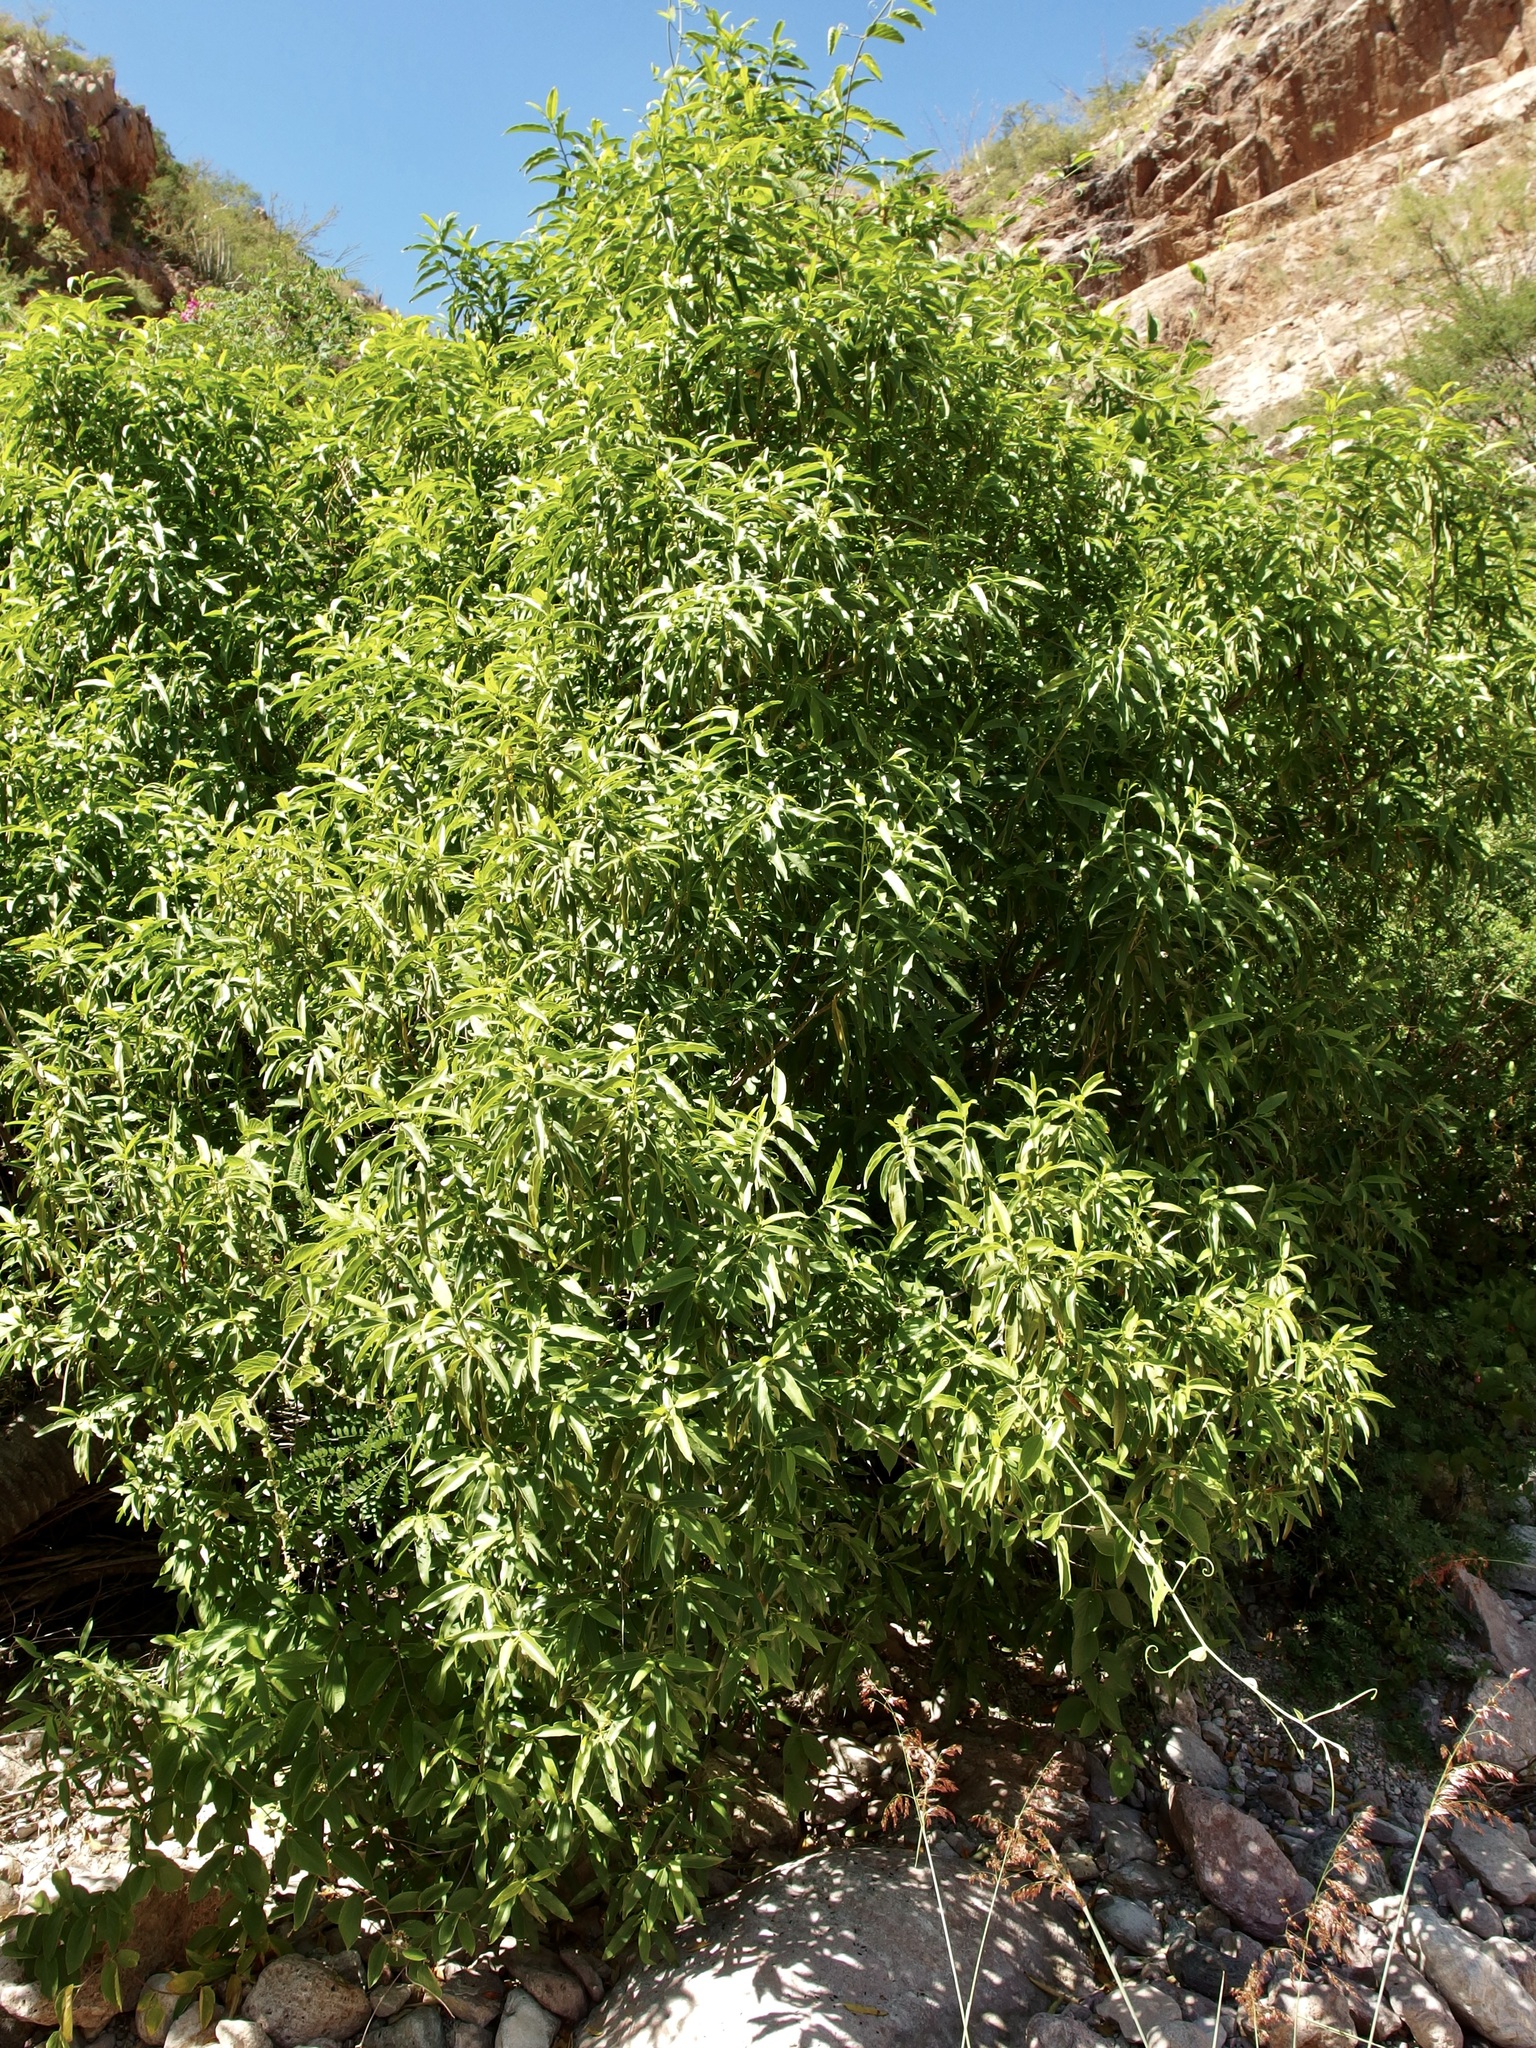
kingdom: Plantae
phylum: Tracheophyta
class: Magnoliopsida
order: Gentianales
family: Apocynaceae
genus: Vallesia
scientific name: Vallesia laciniata
